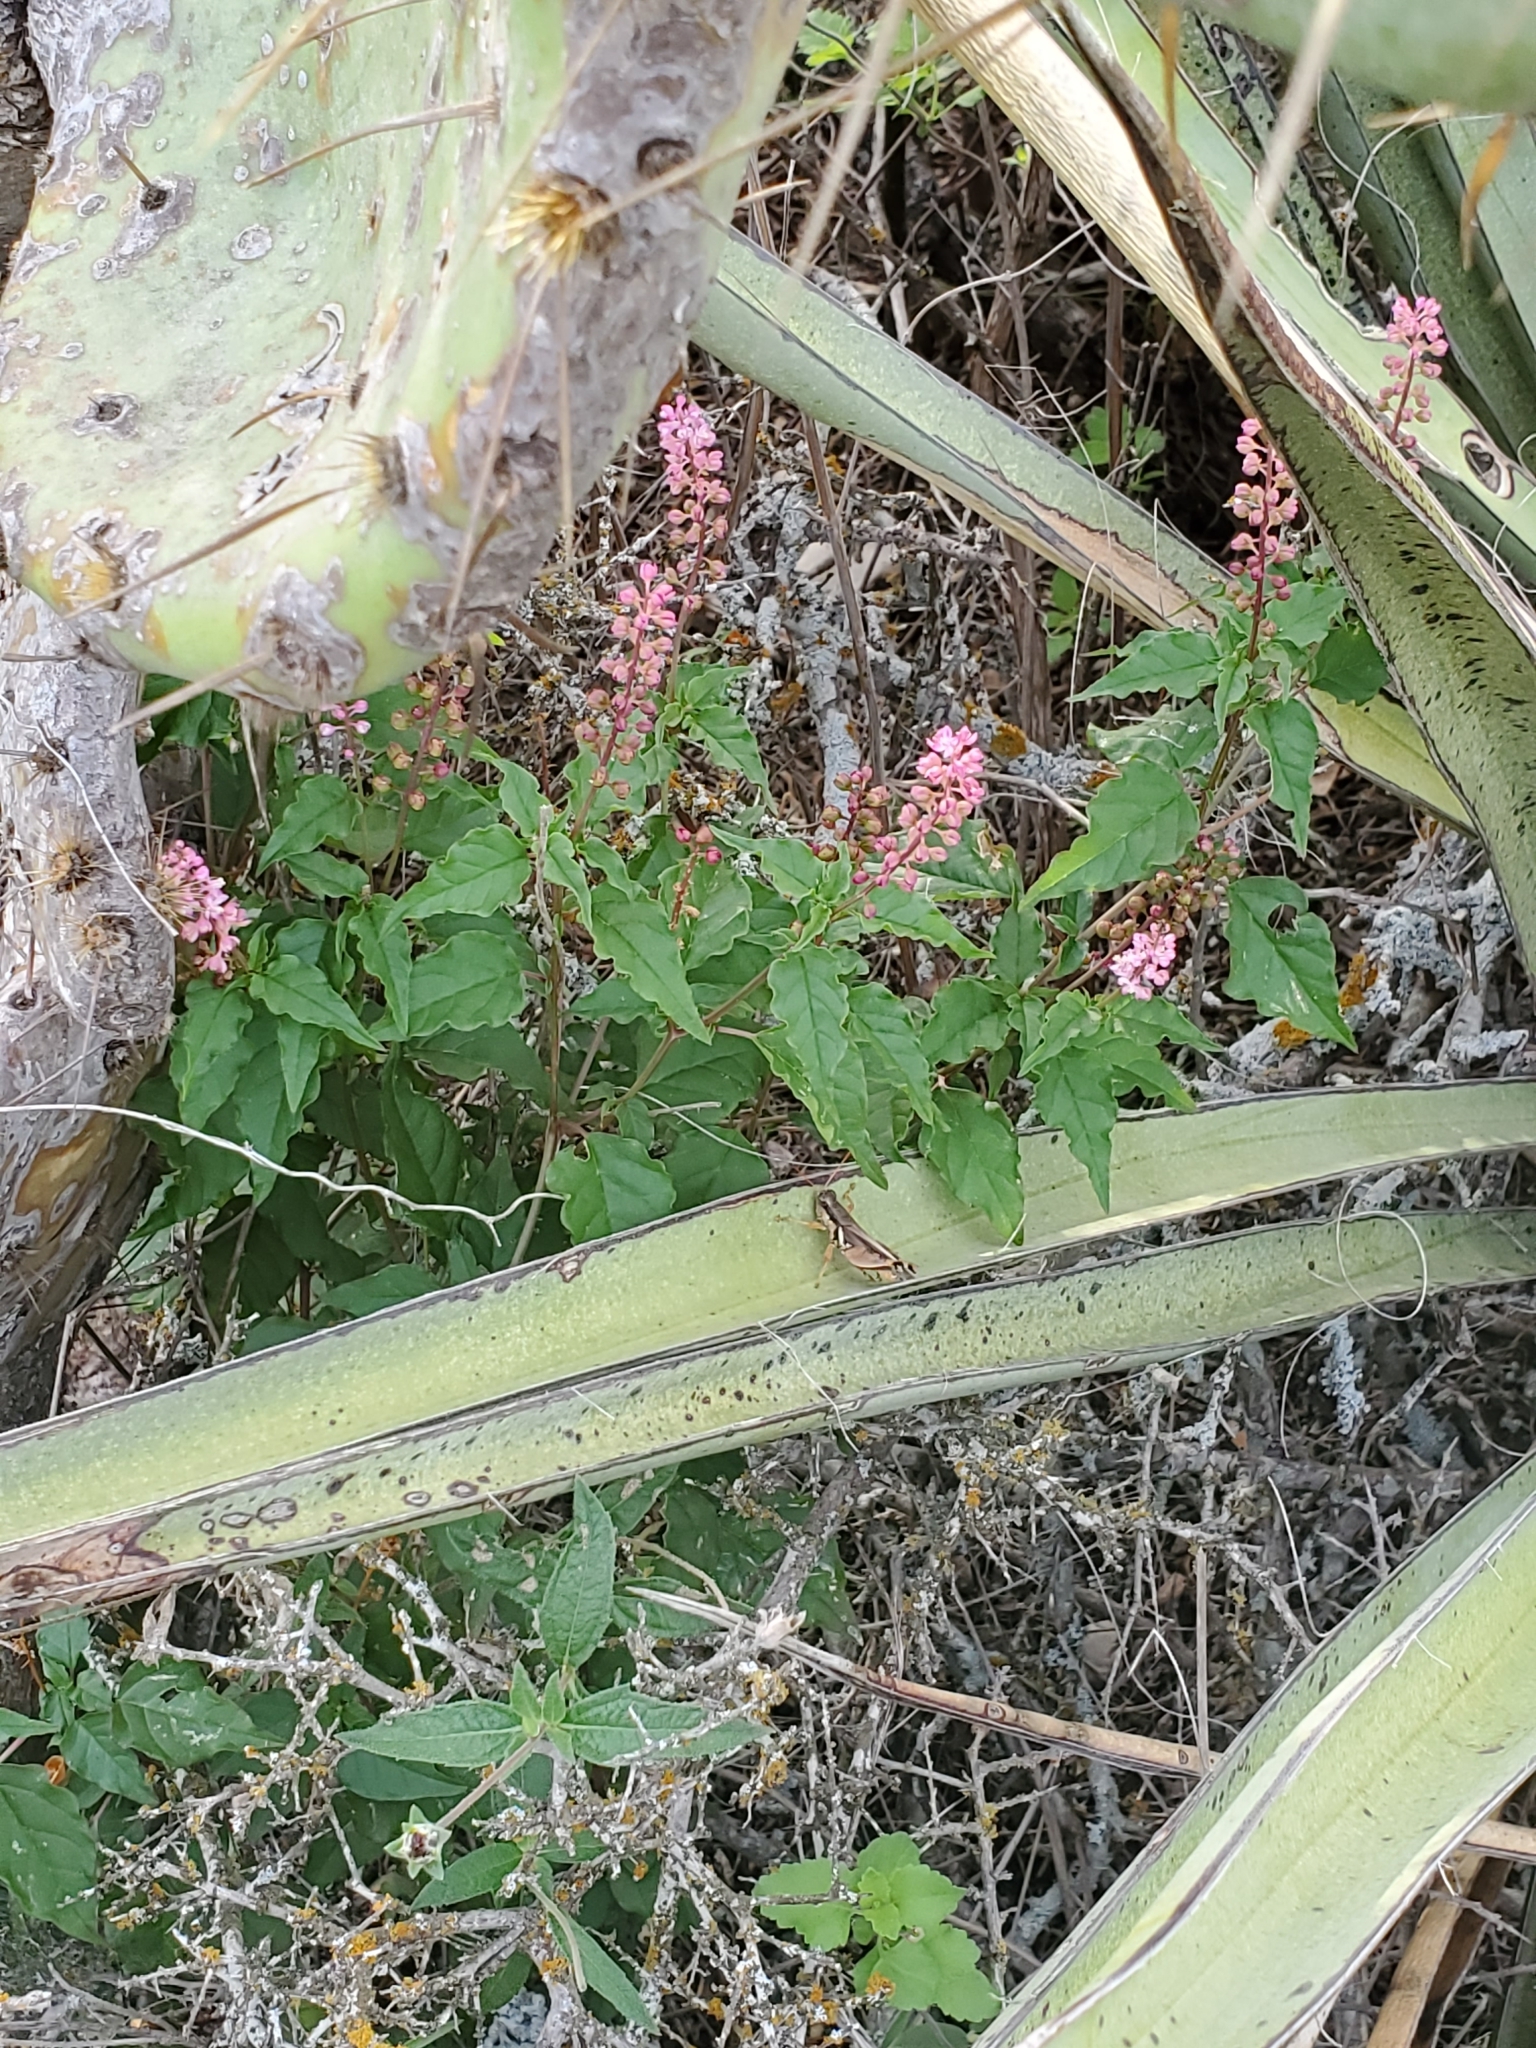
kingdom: Plantae
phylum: Tracheophyta
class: Magnoliopsida
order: Caryophyllales
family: Phytolaccaceae
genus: Rivina
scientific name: Rivina humilis
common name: Rougeplant
